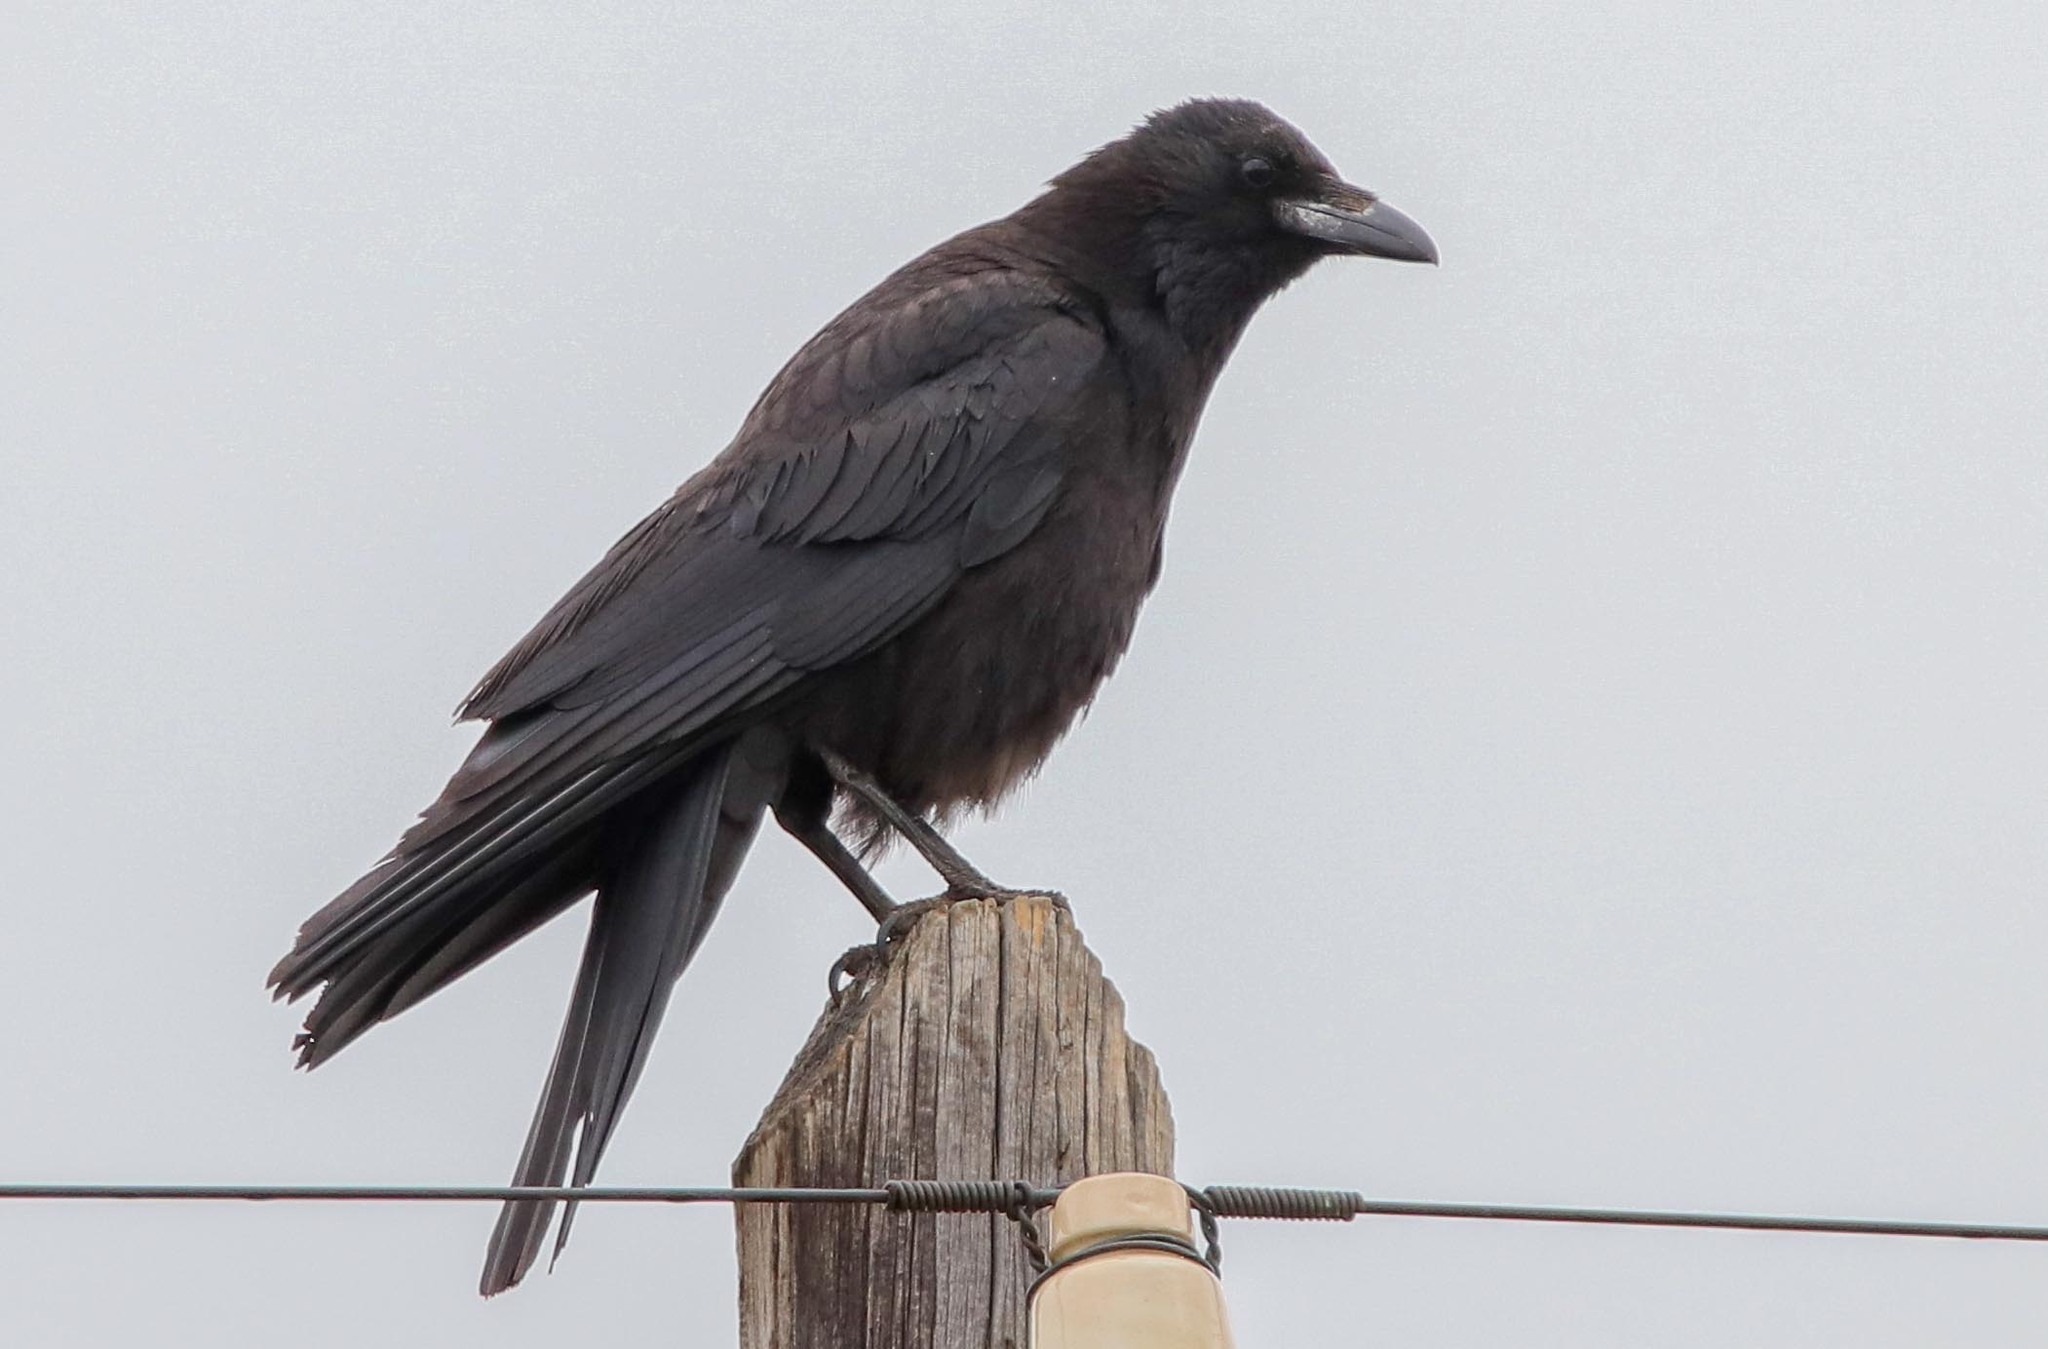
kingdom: Animalia
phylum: Chordata
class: Aves
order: Passeriformes
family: Corvidae
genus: Corvus
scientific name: Corvus corone
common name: Carrion crow
